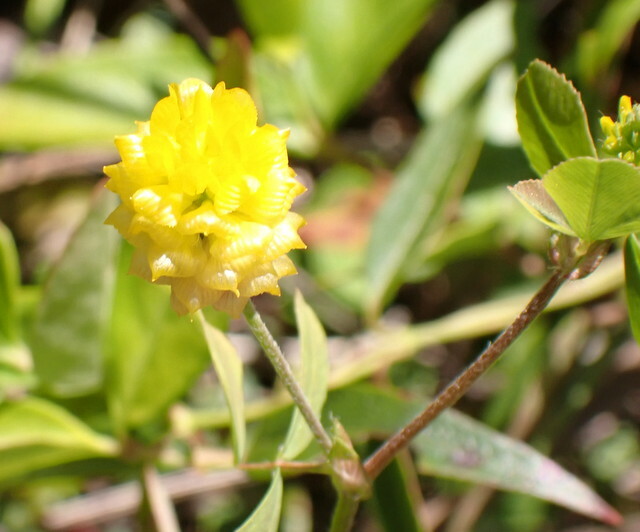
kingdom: Plantae
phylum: Tracheophyta
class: Magnoliopsida
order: Fabales
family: Fabaceae
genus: Trifolium
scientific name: Trifolium campestre
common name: Field clover
